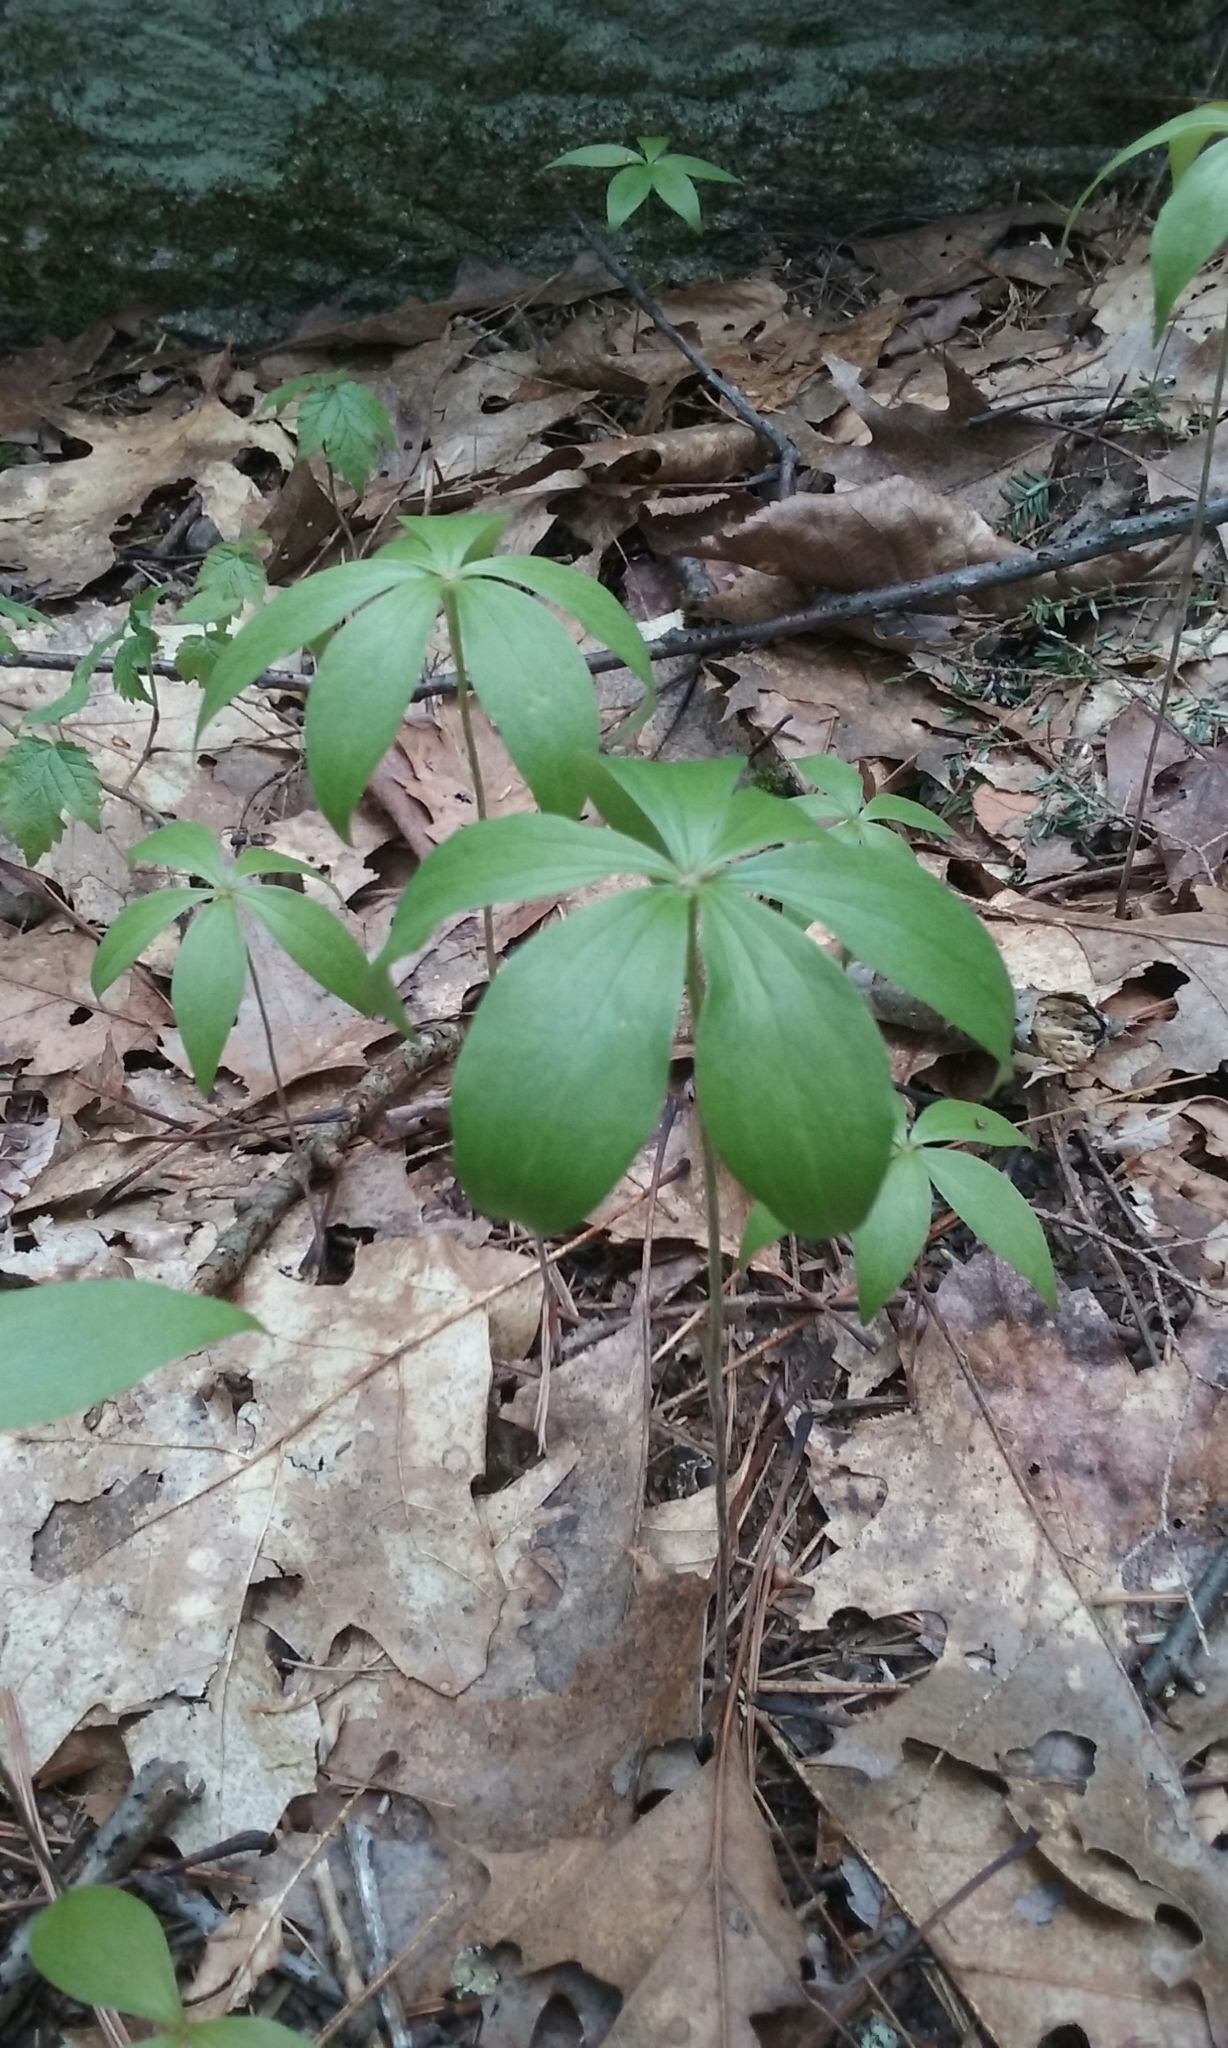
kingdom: Plantae
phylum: Tracheophyta
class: Liliopsida
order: Liliales
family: Liliaceae
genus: Medeola
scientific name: Medeola virginiana
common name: Indian cucumber-root
